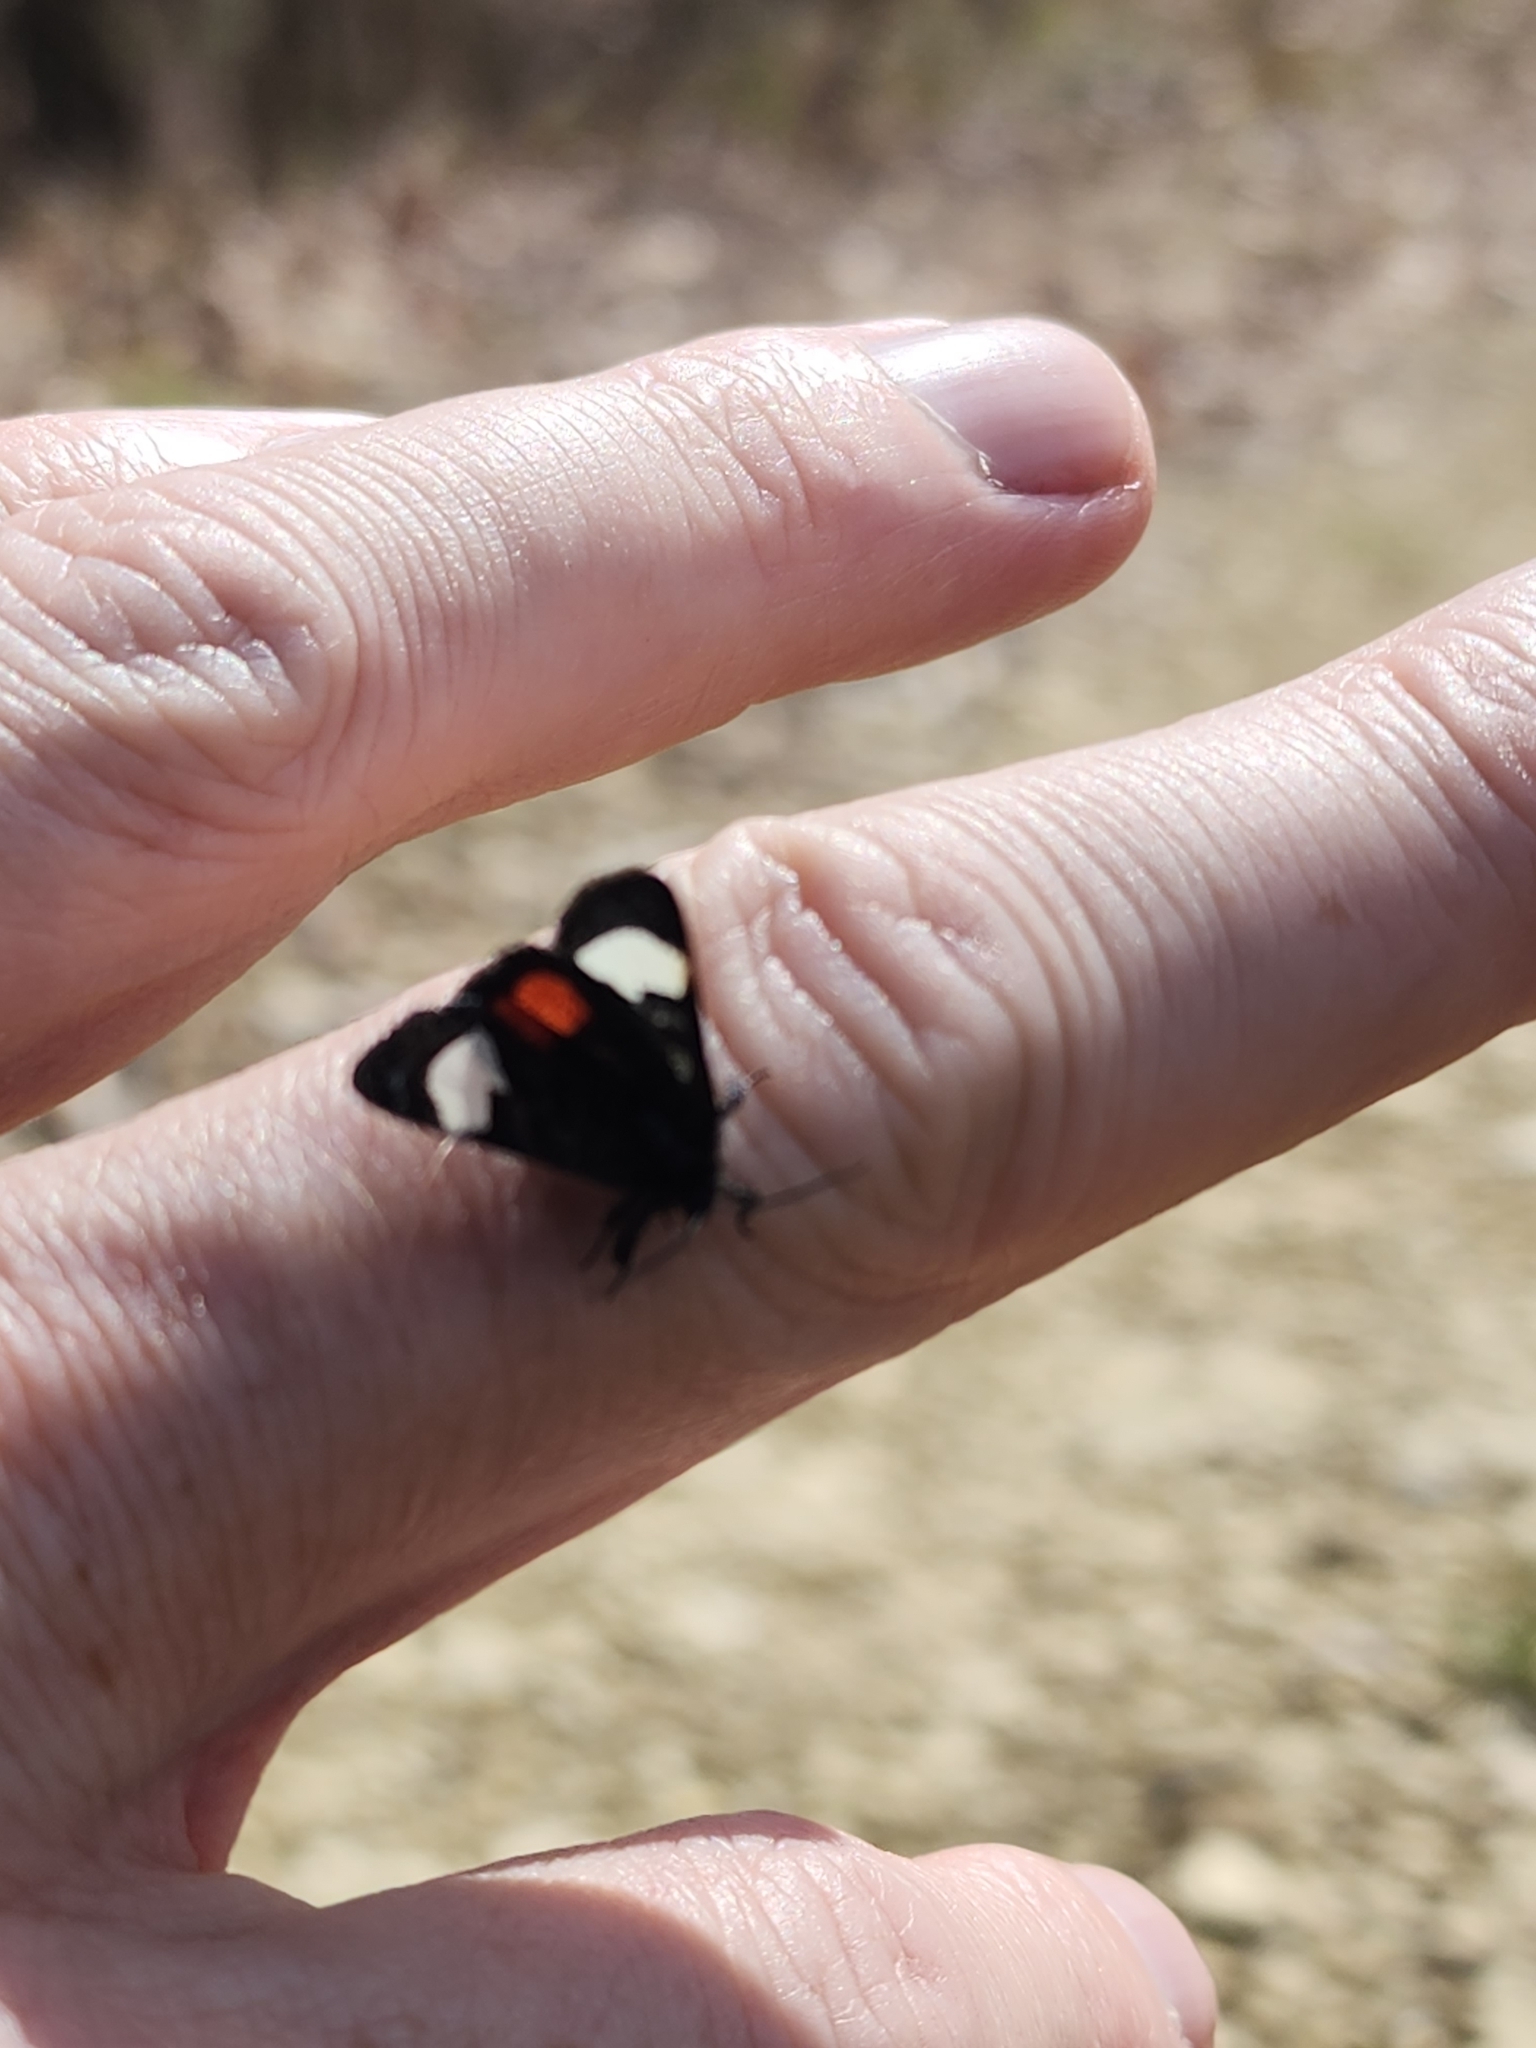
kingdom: Animalia
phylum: Arthropoda
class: Insecta
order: Lepidoptera
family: Noctuidae
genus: Psychomorpha
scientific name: Psychomorpha epimenis
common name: Grapevine epimenis moth
